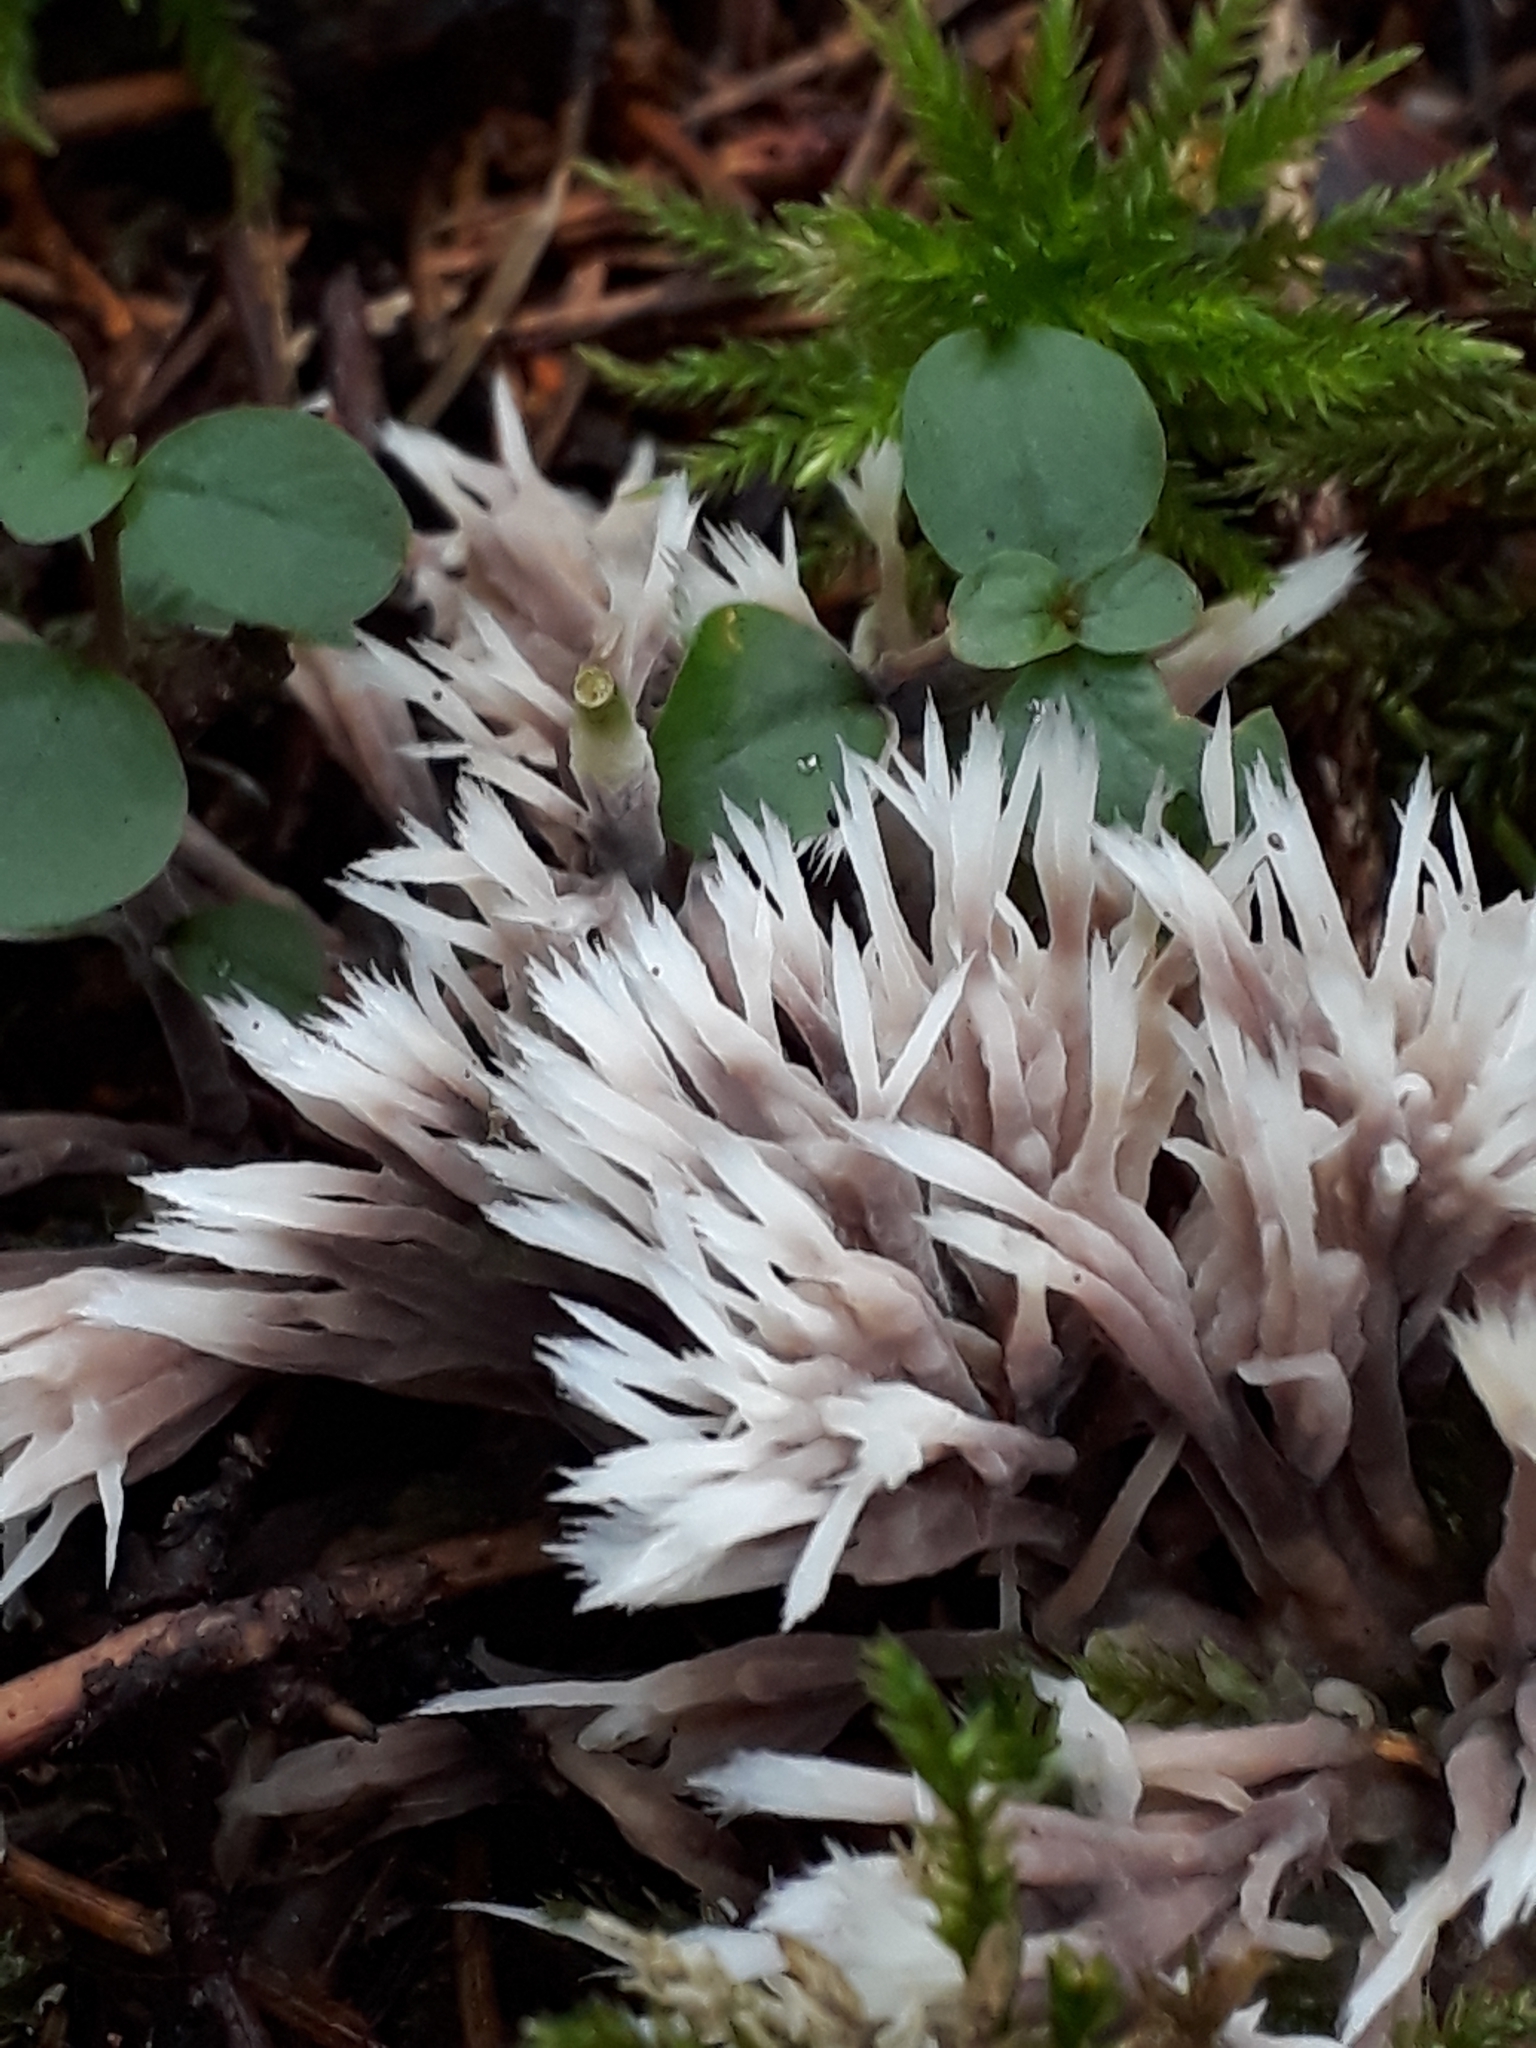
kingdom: Fungi
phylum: Basidiomycota
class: Agaricomycetes
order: Thelephorales
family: Thelephoraceae
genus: Thelephora
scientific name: Thelephora penicillata
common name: Urchin earthfan
